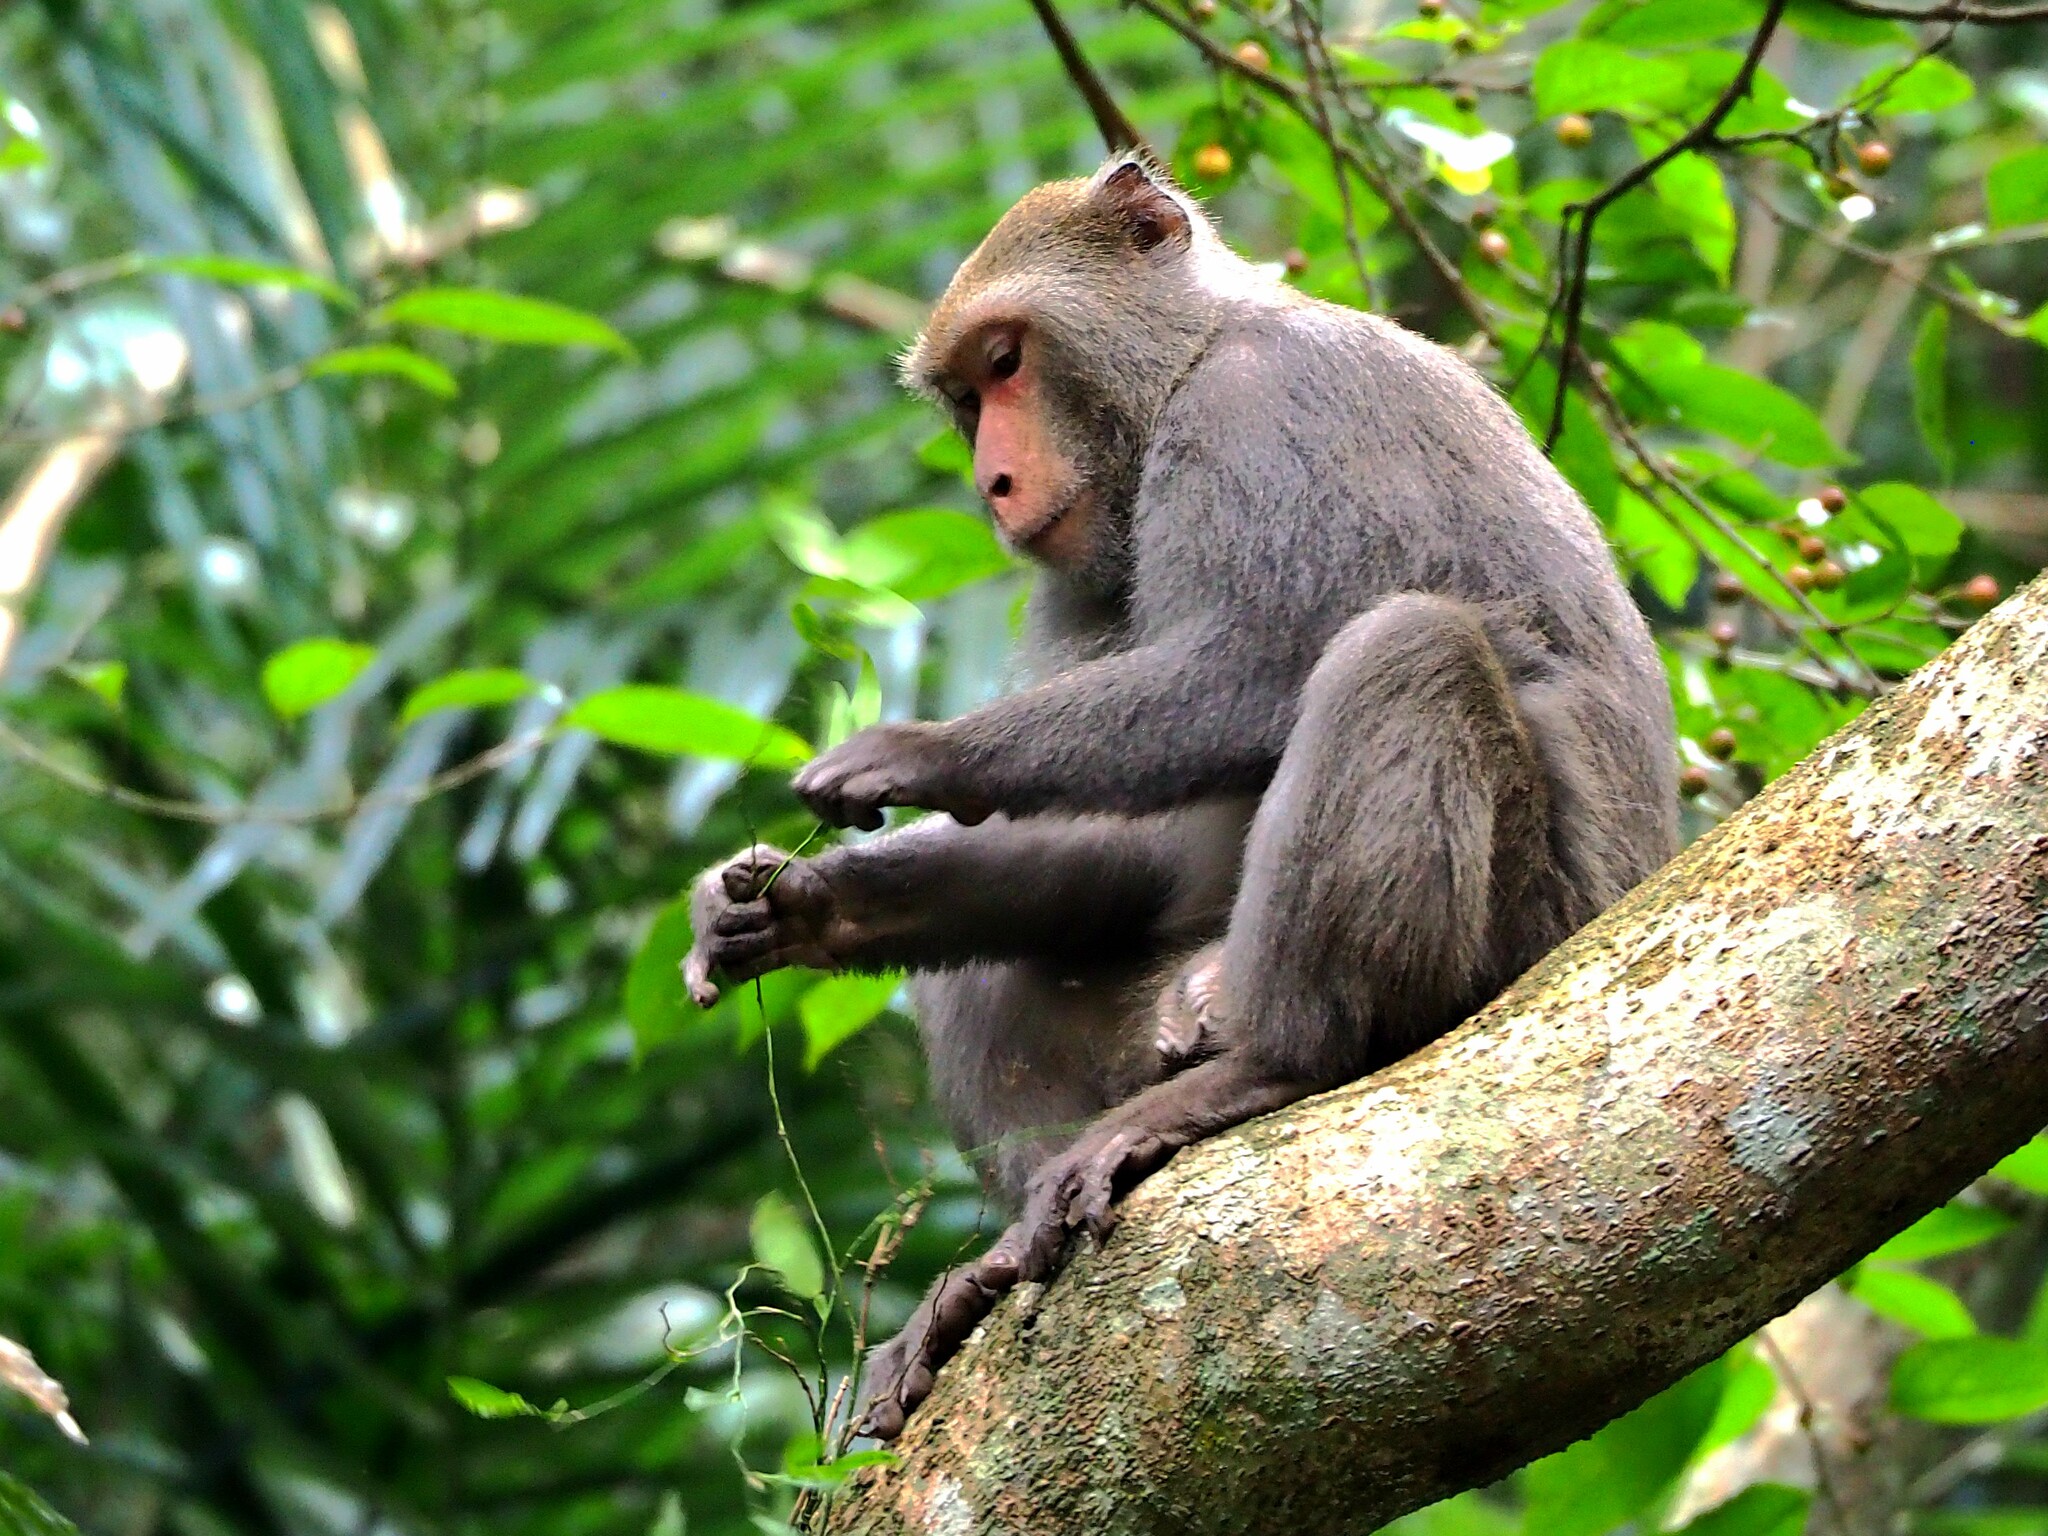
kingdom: Animalia
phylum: Chordata
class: Mammalia
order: Primates
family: Cercopithecidae
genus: Macaca
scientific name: Macaca cyclopis
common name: Formosan rock macaque
